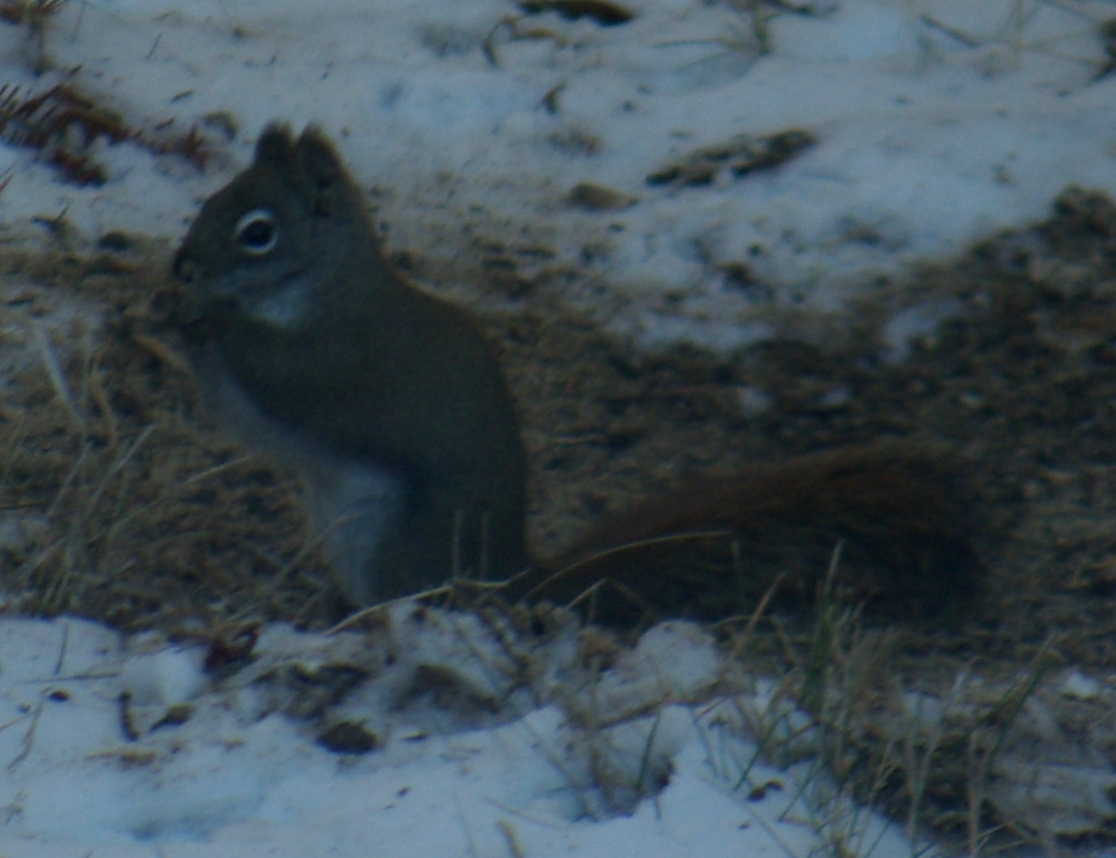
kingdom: Animalia
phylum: Chordata
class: Mammalia
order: Rodentia
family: Sciuridae
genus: Tamiasciurus
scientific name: Tamiasciurus hudsonicus
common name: Red squirrel
